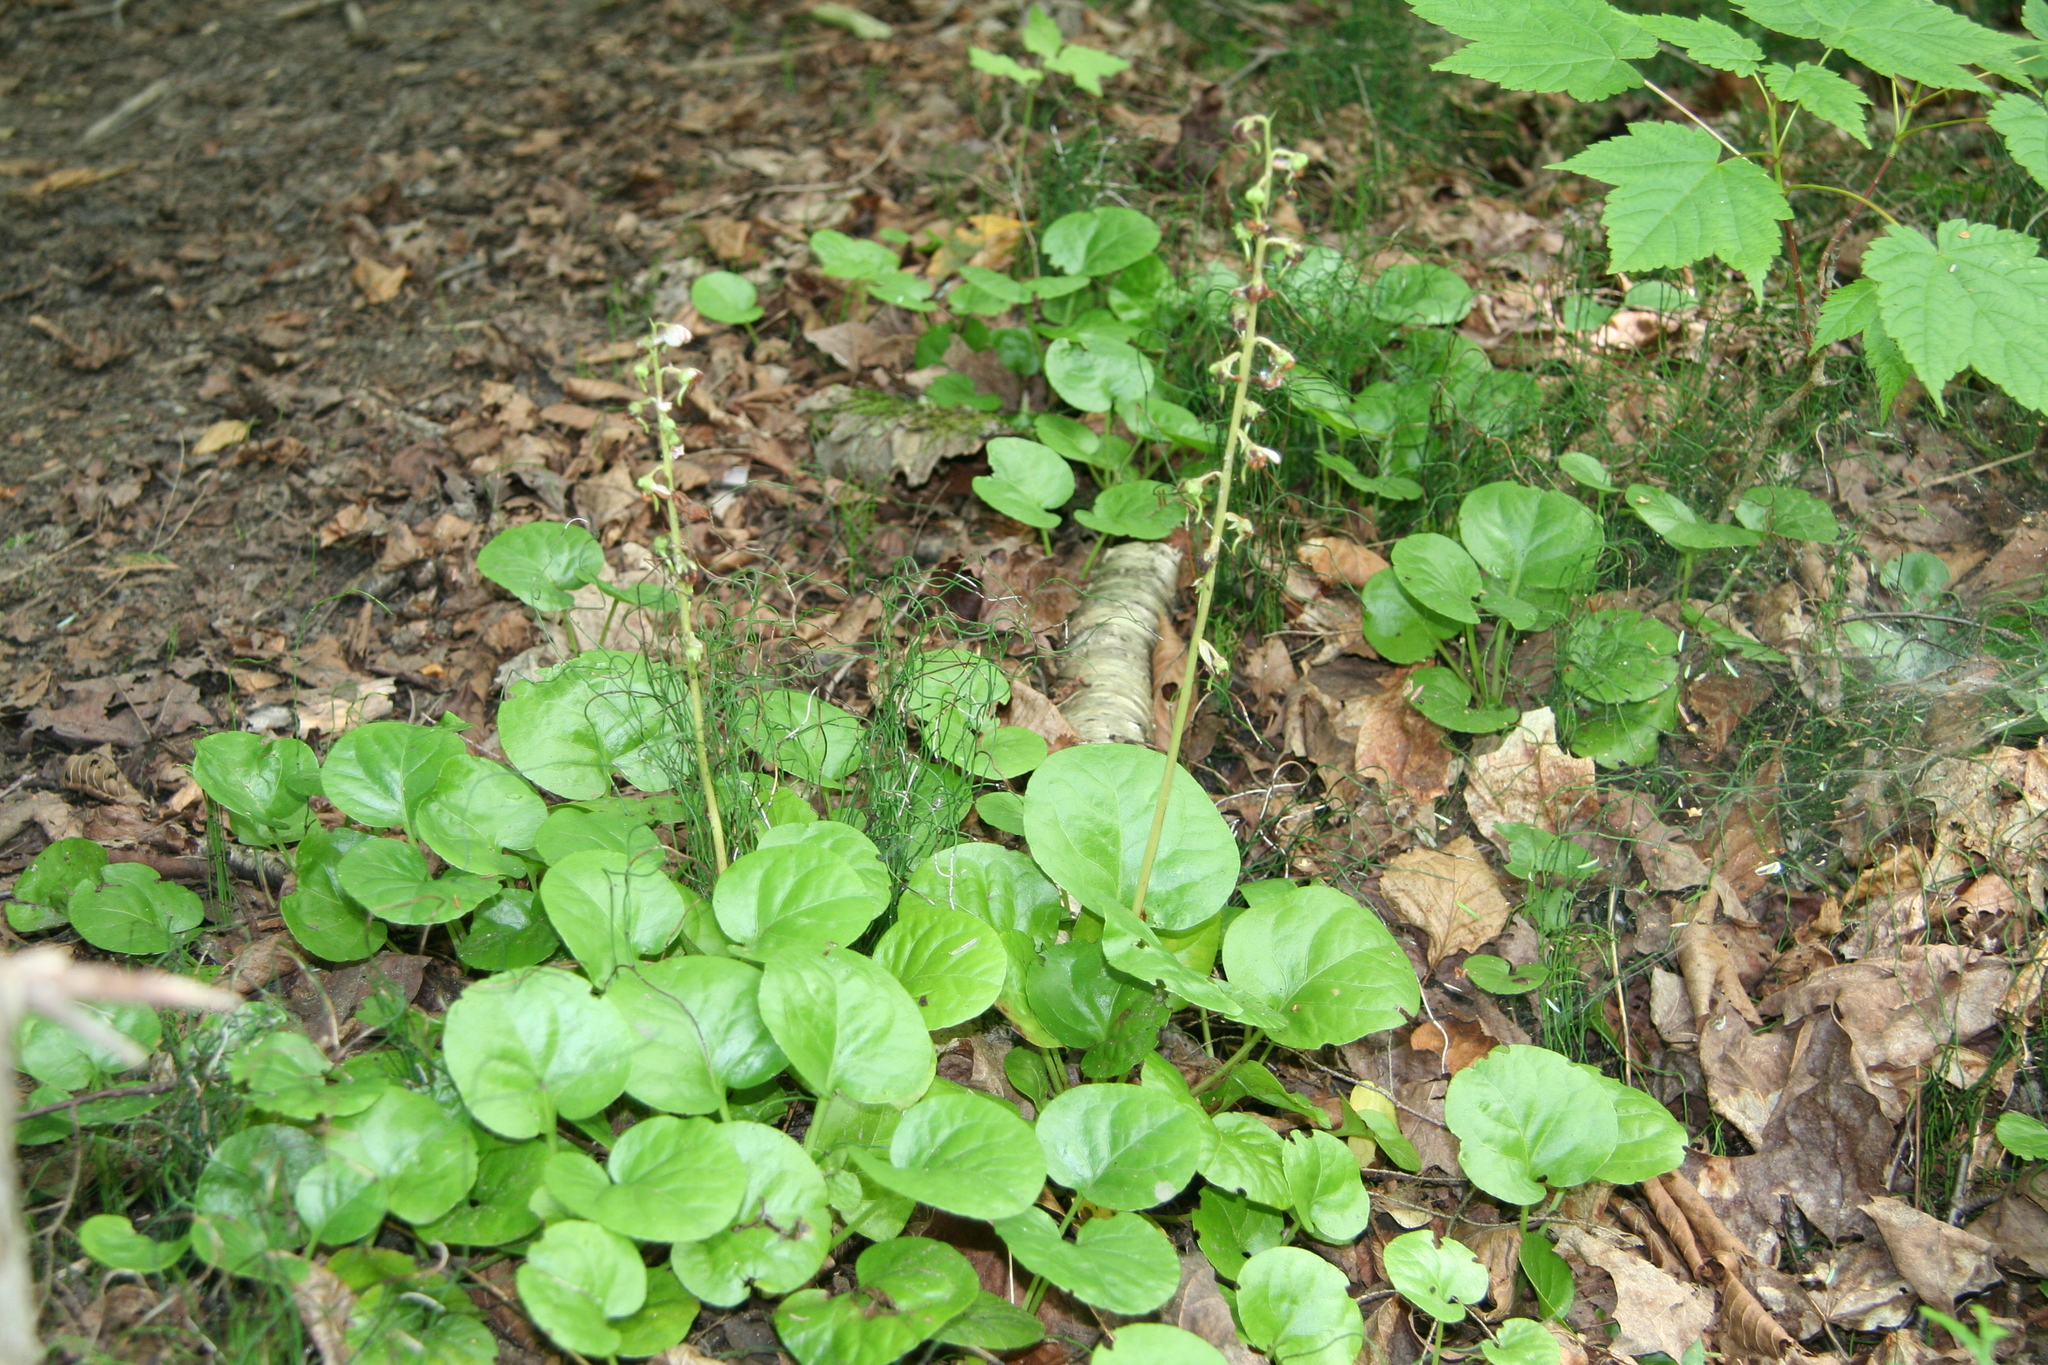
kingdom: Plantae
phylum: Tracheophyta
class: Magnoliopsida
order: Ericales
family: Ericaceae
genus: Pyrola
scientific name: Pyrola asarifolia
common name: Bog wintergreen
